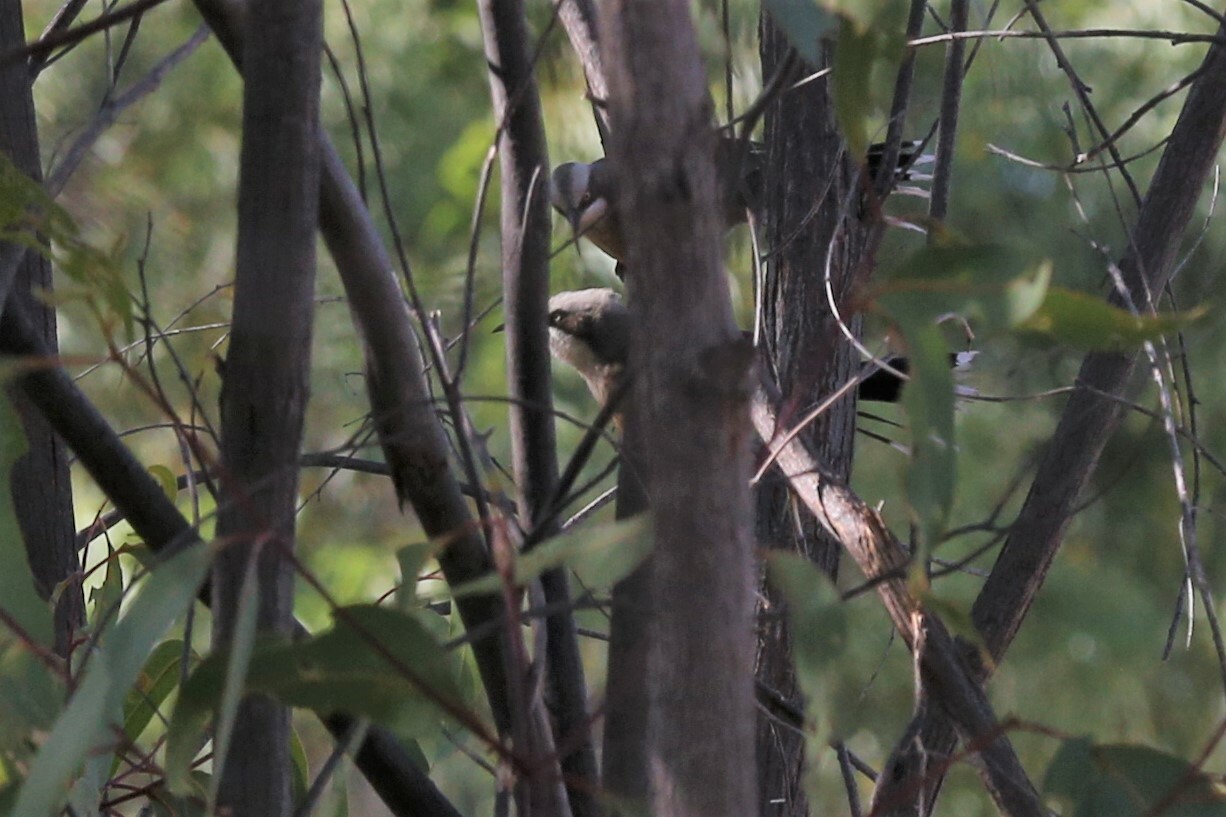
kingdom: Animalia
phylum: Chordata
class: Aves
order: Passeriformes
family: Pomatostomidae
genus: Pomatostomus
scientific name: Pomatostomus temporalis
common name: Grey-crowned babbler
